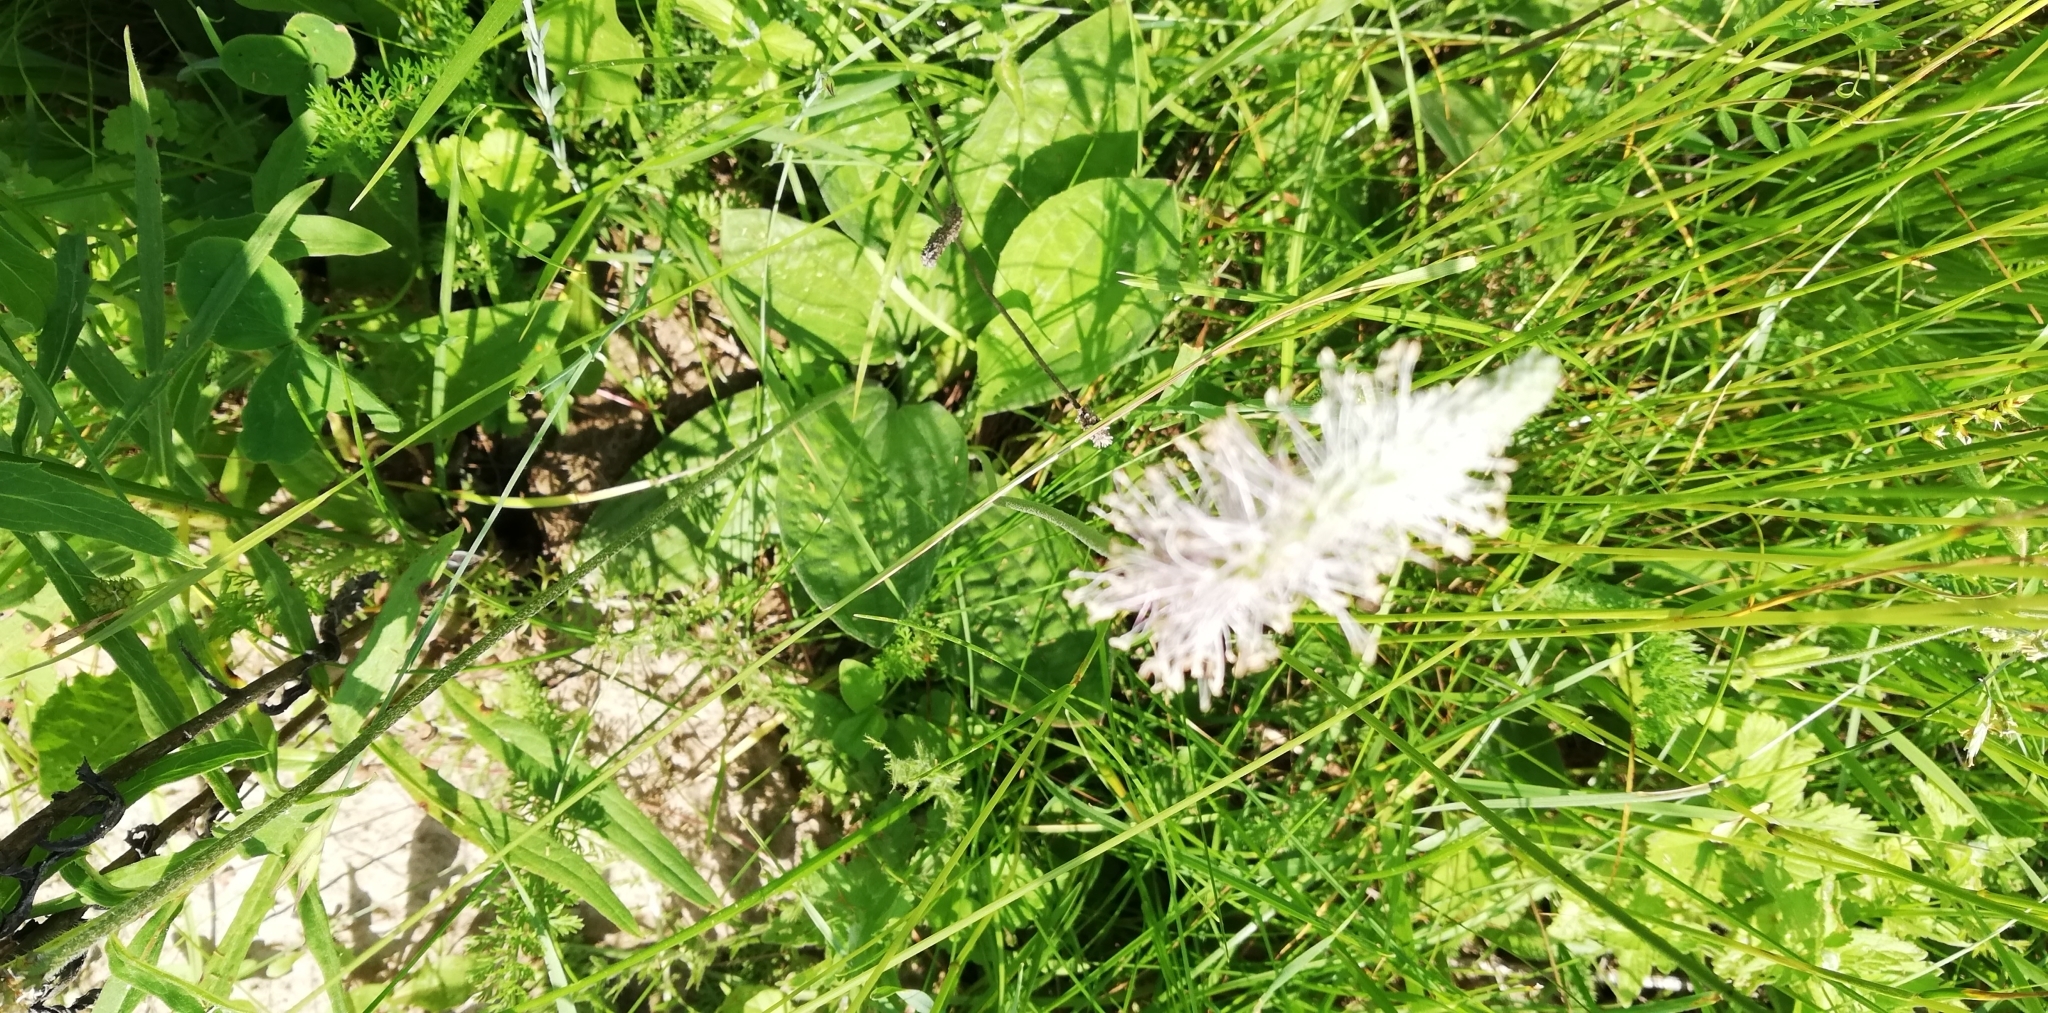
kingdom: Plantae
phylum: Tracheophyta
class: Magnoliopsida
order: Lamiales
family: Plantaginaceae
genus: Plantago
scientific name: Plantago media
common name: Hoary plantain
